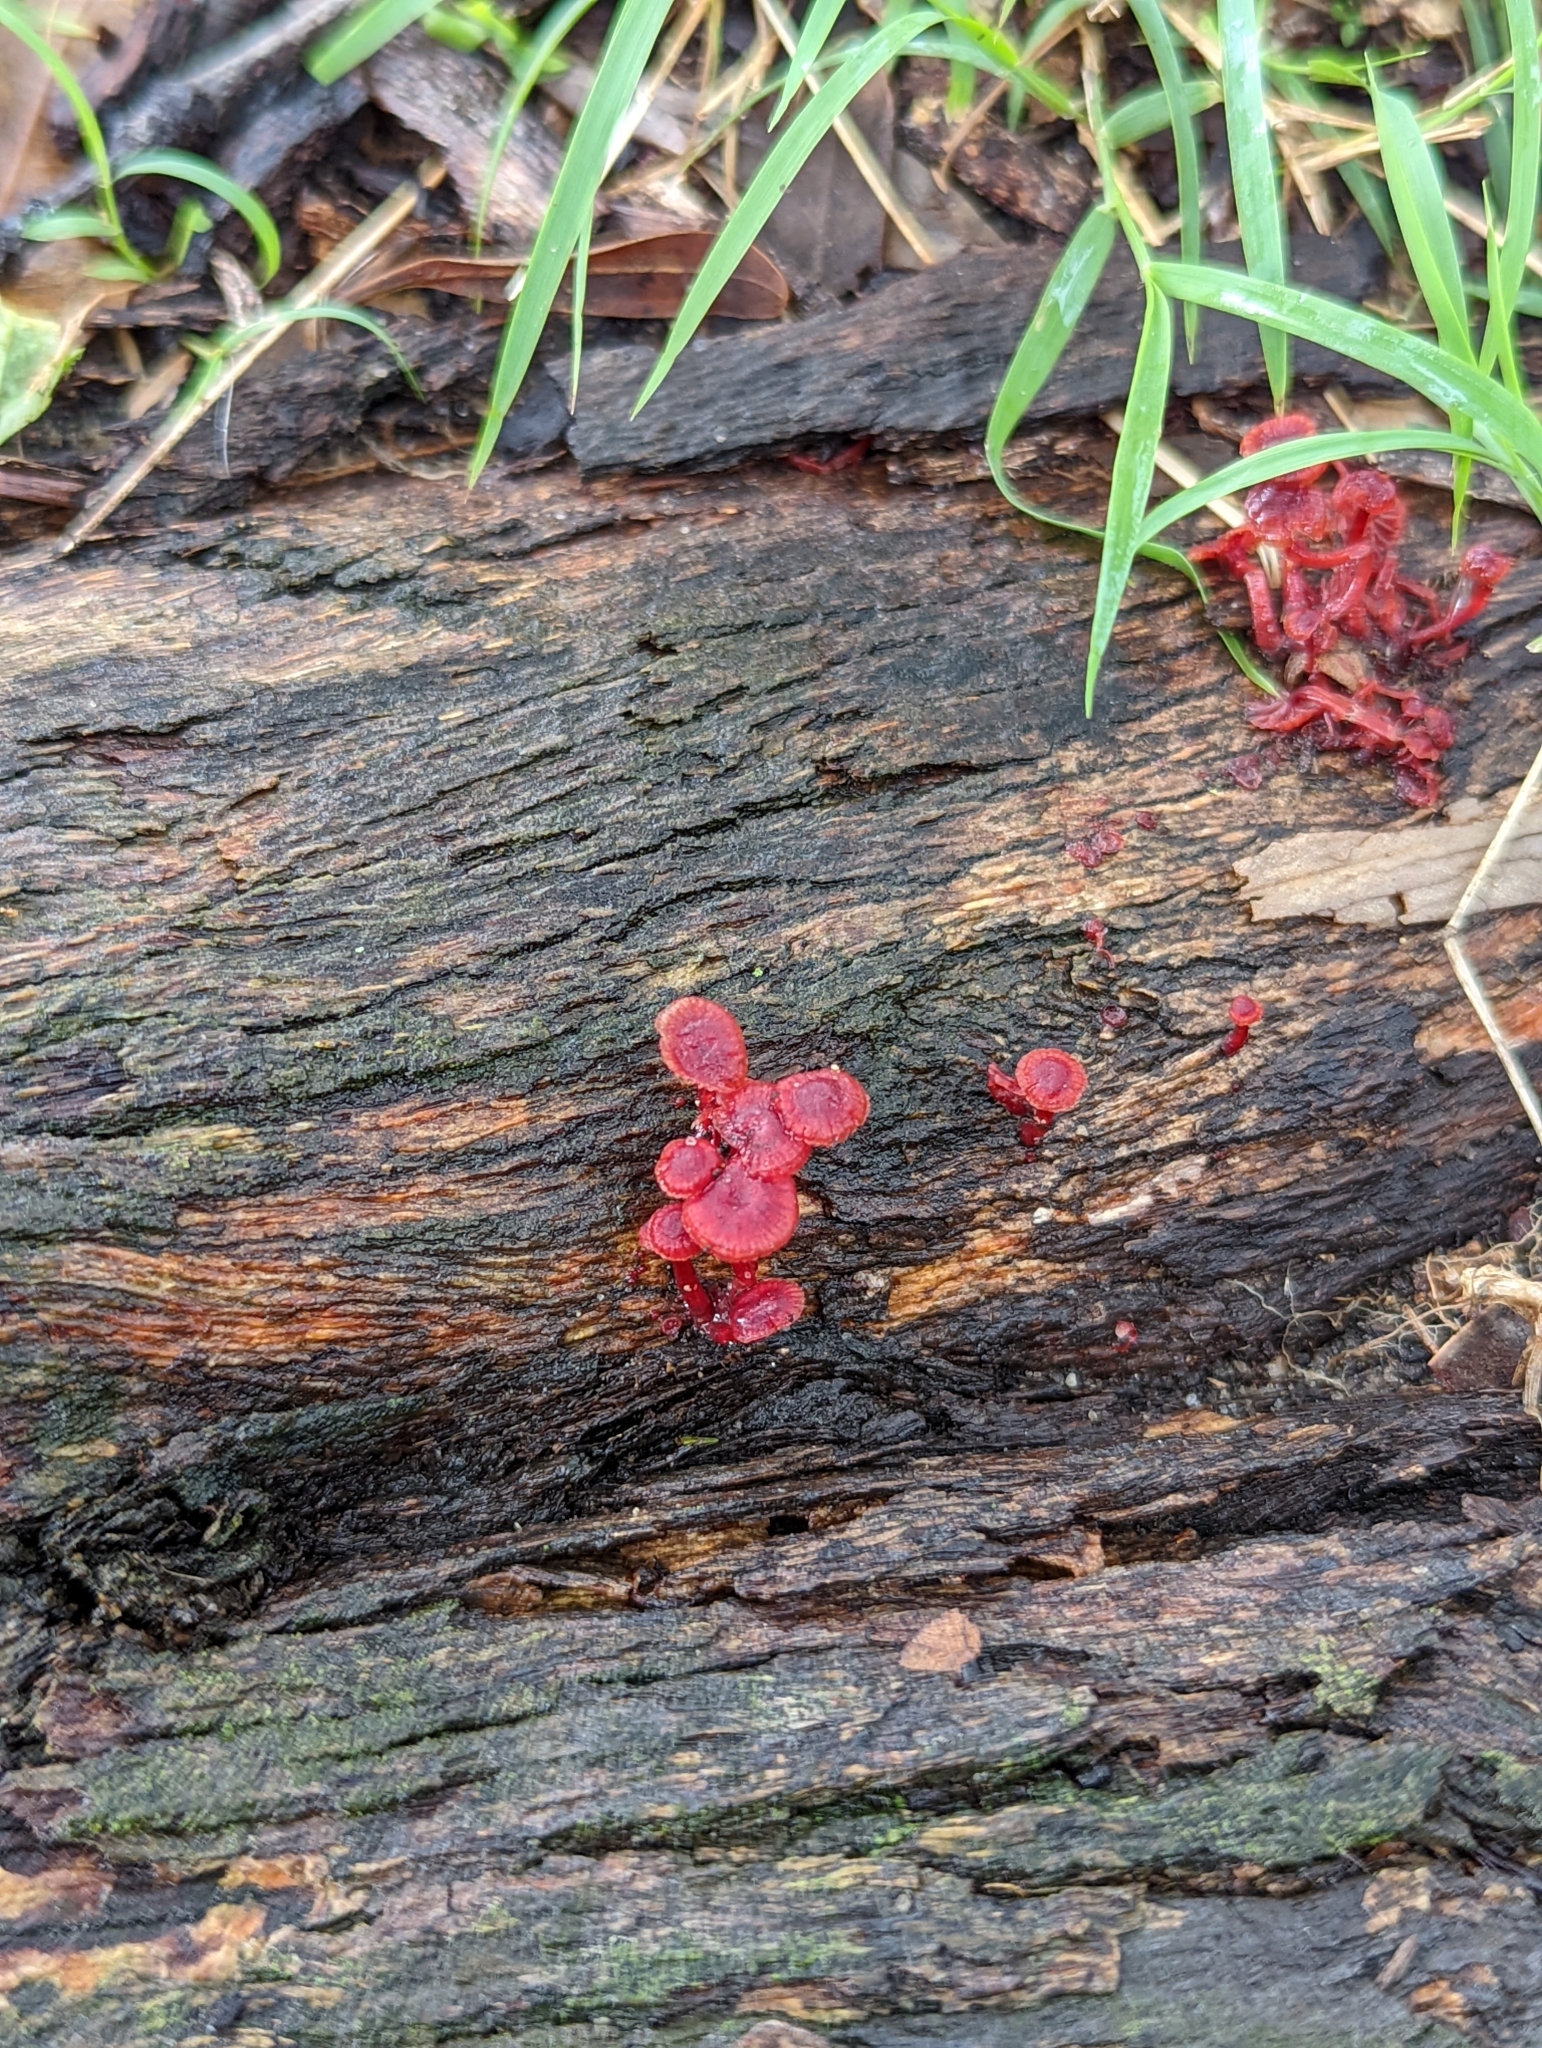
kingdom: Fungi
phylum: Basidiomycota
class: Agaricomycetes
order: Agaricales
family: Mycenaceae
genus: Cruentomycena
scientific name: Cruentomycena viscidocruenta
